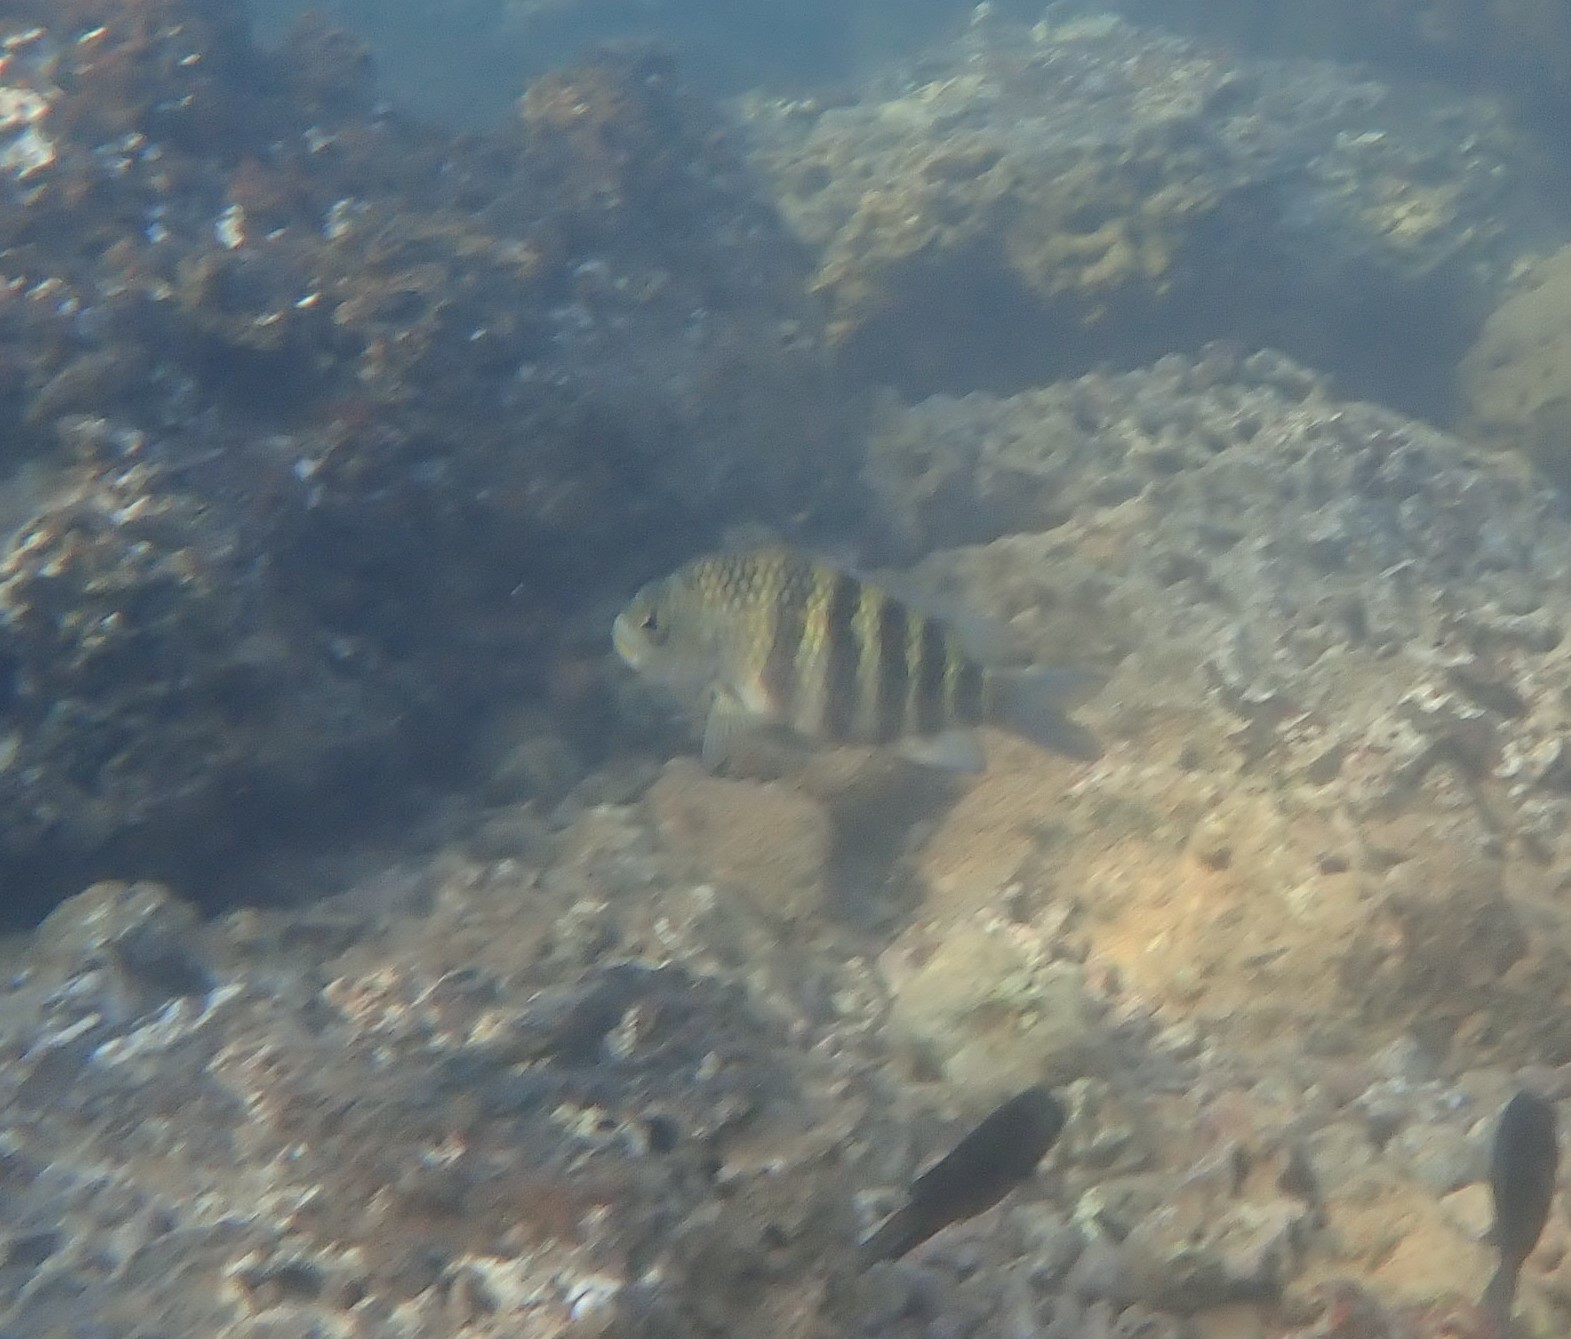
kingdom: Animalia
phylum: Chordata
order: Perciformes
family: Pomacentridae
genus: Abudefduf
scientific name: Abudefduf septemfasciatus
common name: Banded sergeant
